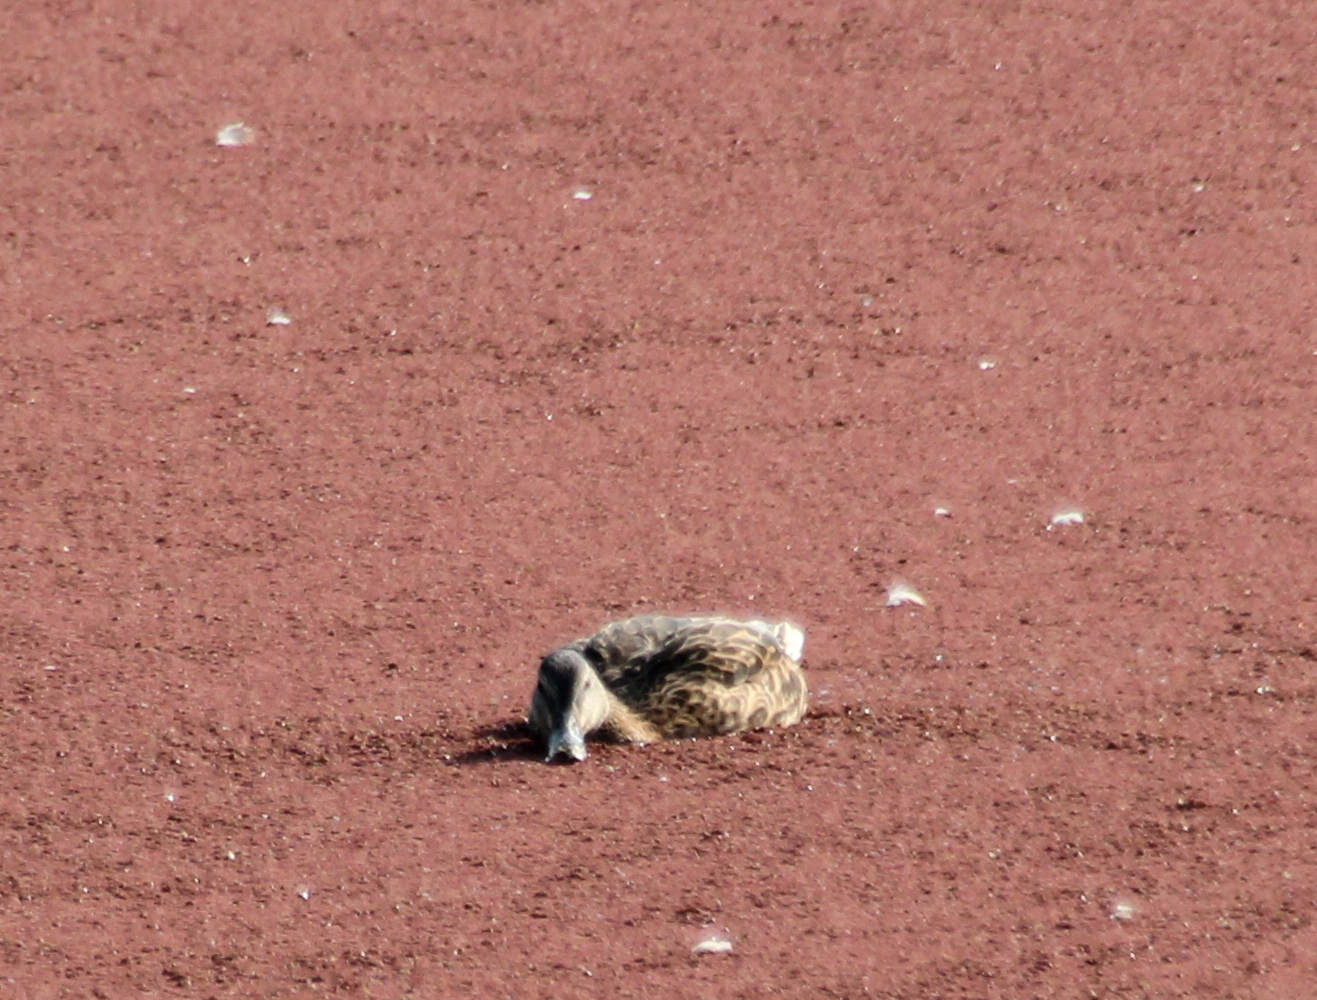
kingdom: Animalia
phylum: Chordata
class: Aves
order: Anseriformes
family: Anatidae
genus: Anas
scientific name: Anas platyrhynchos
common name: Mallard
